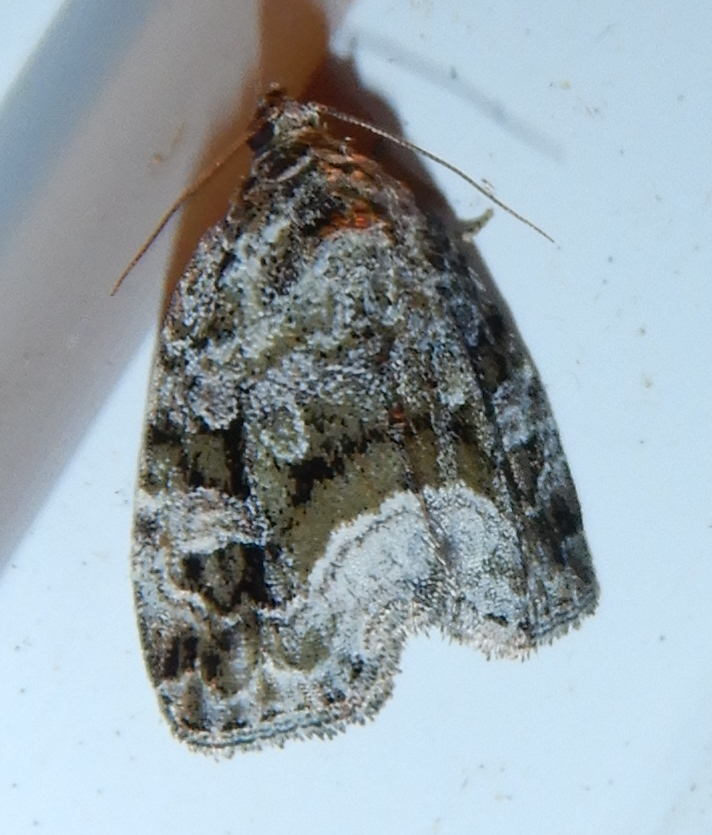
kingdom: Animalia
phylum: Arthropoda
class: Insecta
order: Lepidoptera
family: Noctuidae
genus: Protodeltote
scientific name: Protodeltote muscosula
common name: Large mossy glyph
